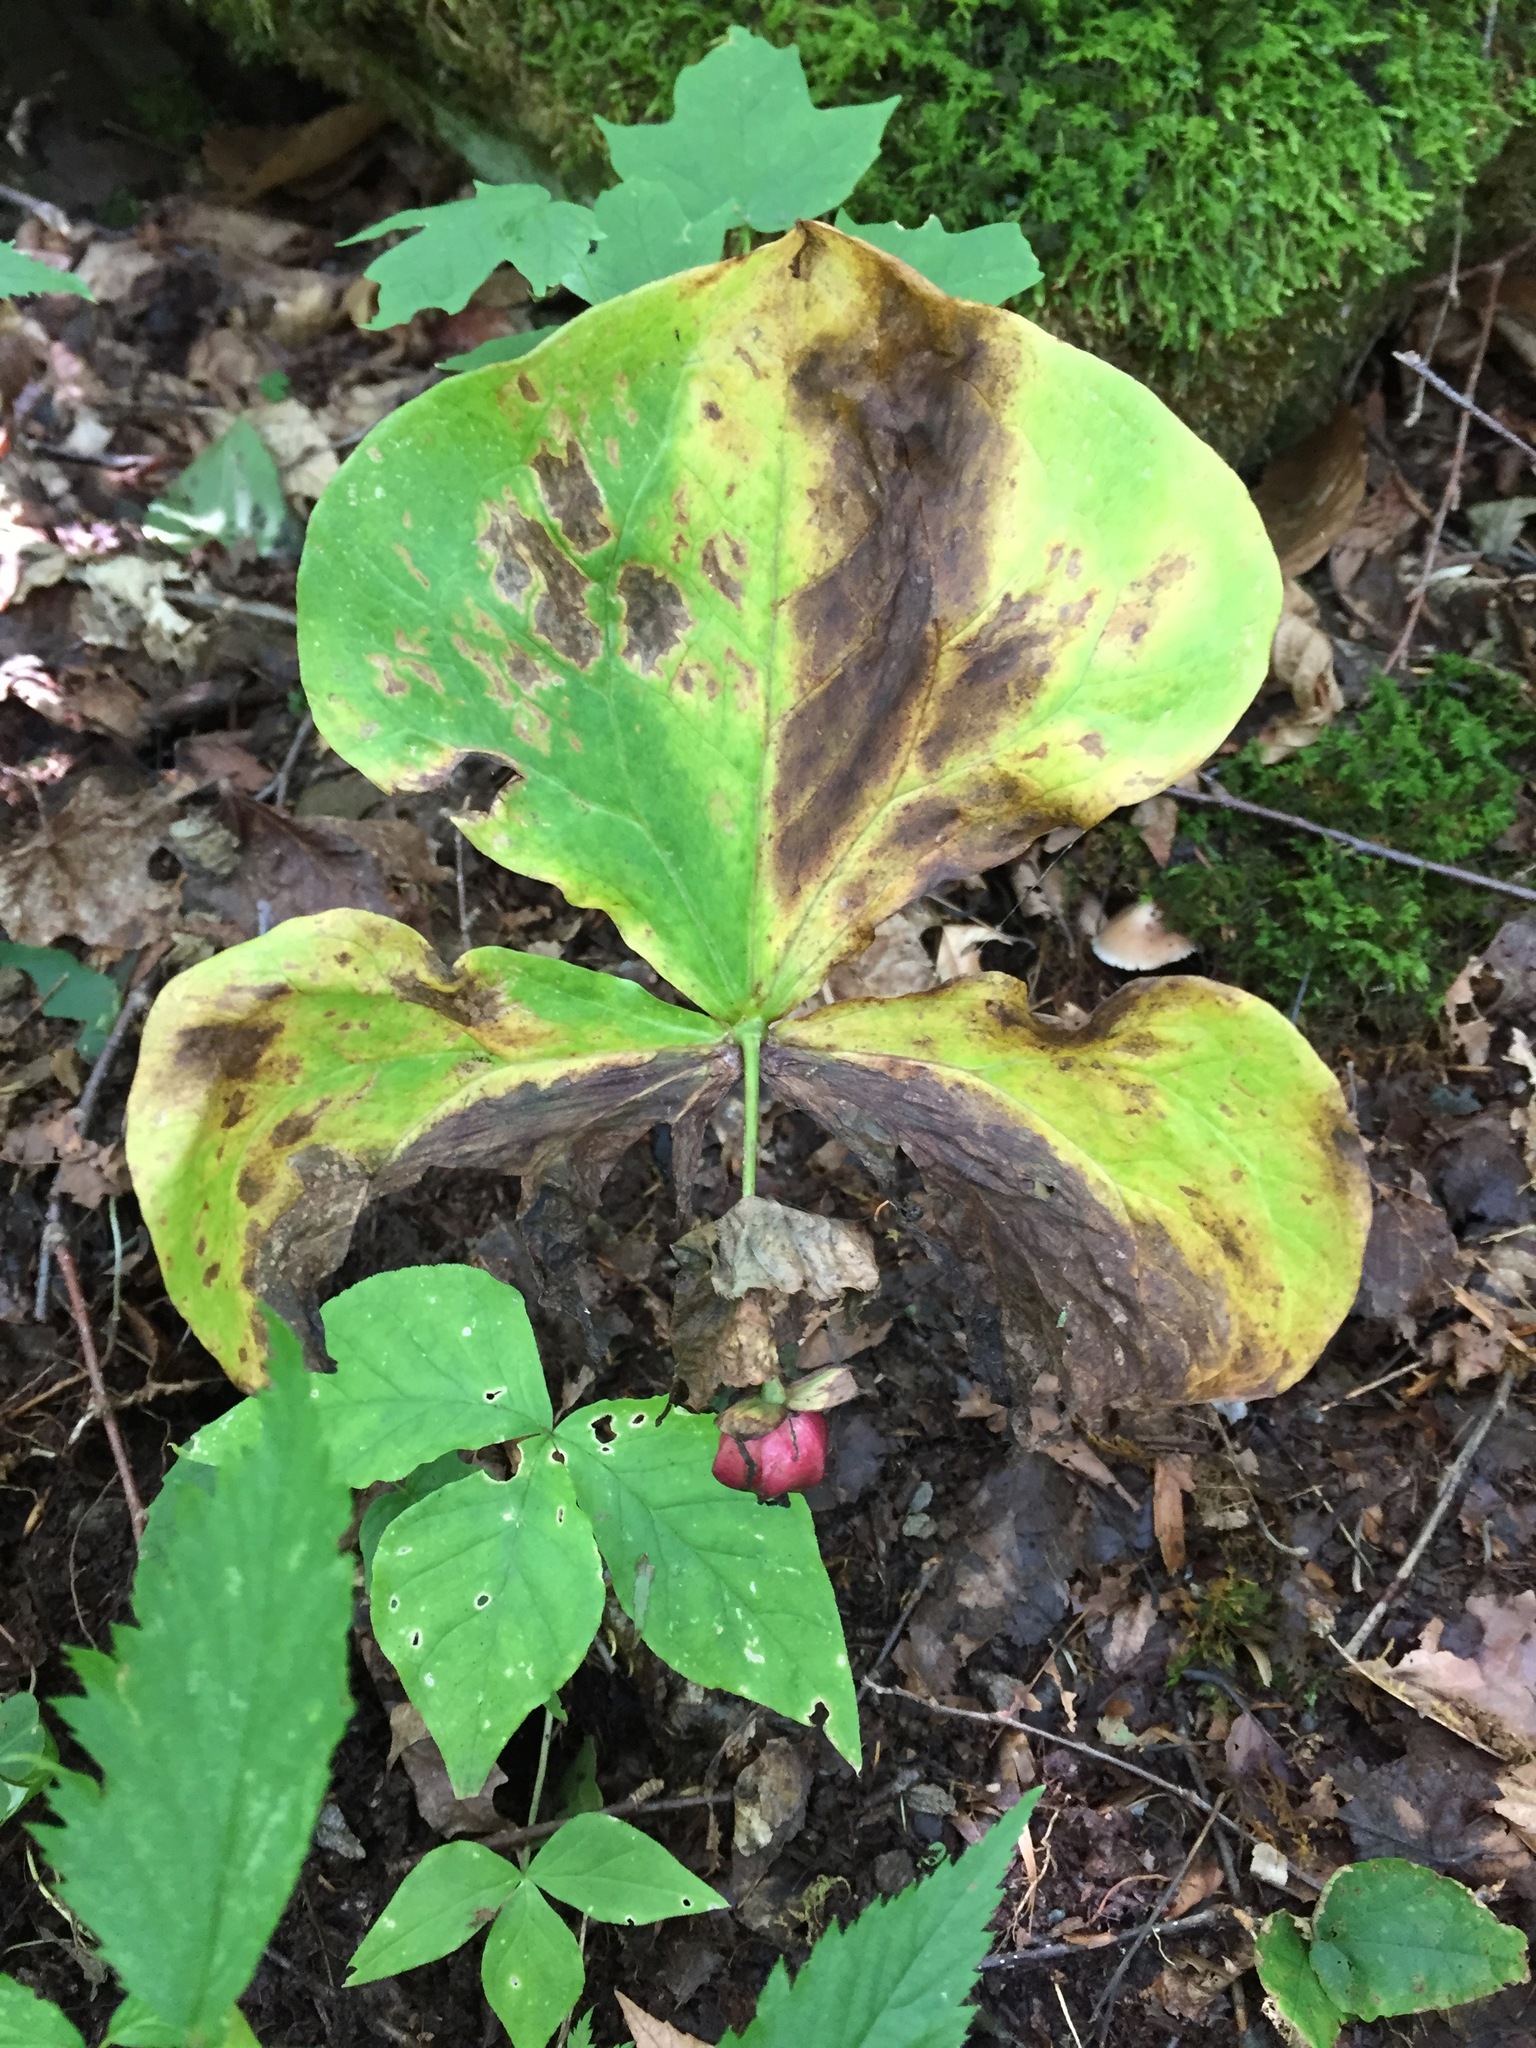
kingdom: Plantae
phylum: Tracheophyta
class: Liliopsida
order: Liliales
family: Melanthiaceae
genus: Trillium
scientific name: Trillium erectum
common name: Purple trillium
